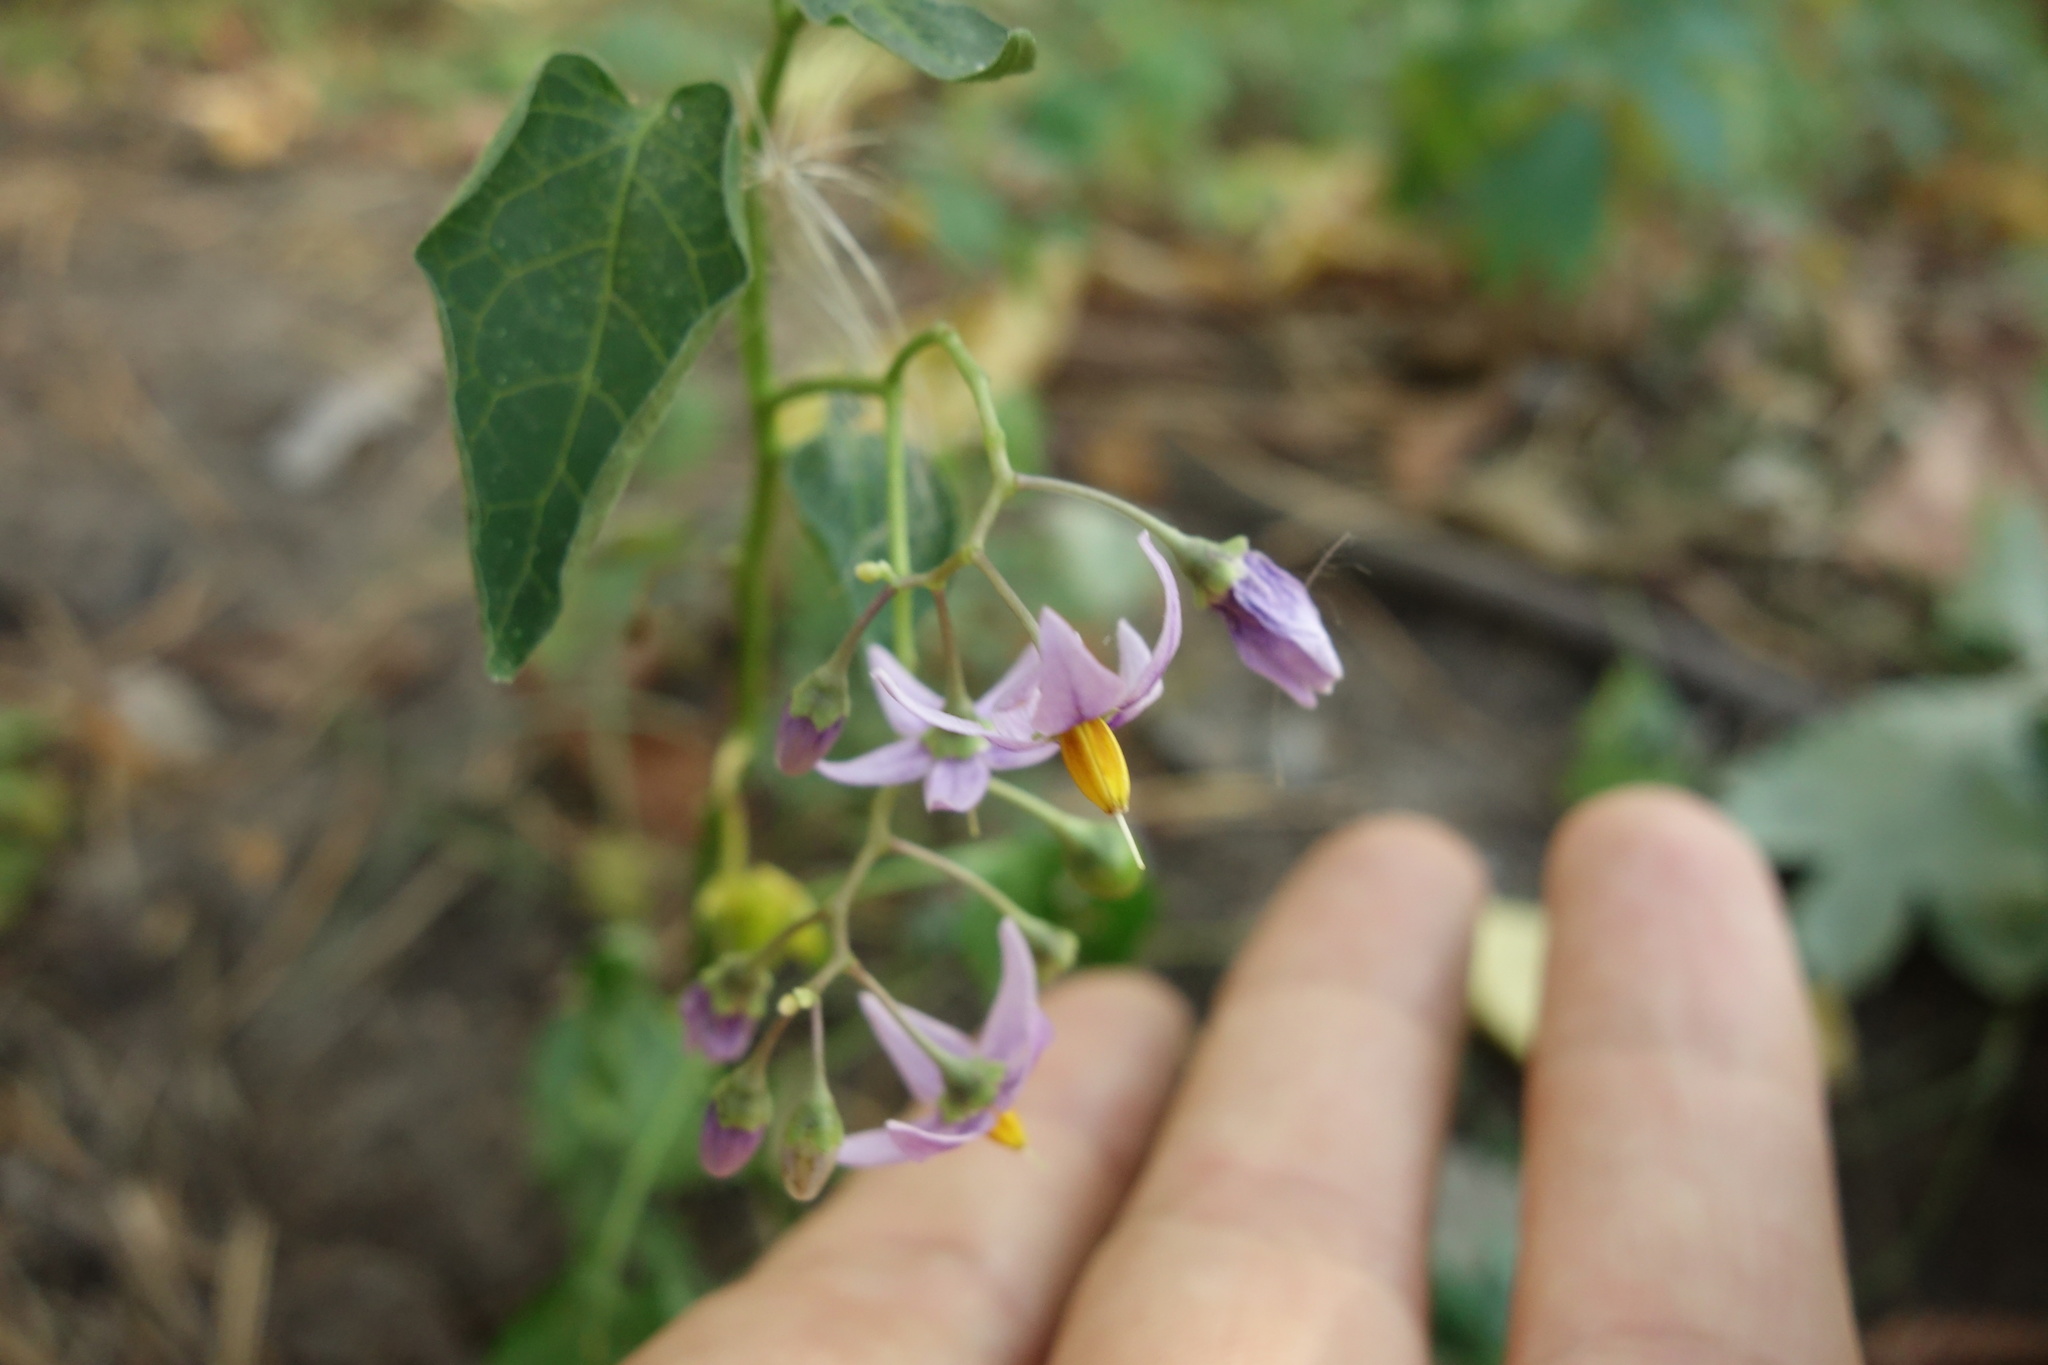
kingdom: Plantae
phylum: Tracheophyta
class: Magnoliopsida
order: Solanales
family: Solanaceae
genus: Solanum
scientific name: Solanum dulcamara
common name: Climbing nightshade
